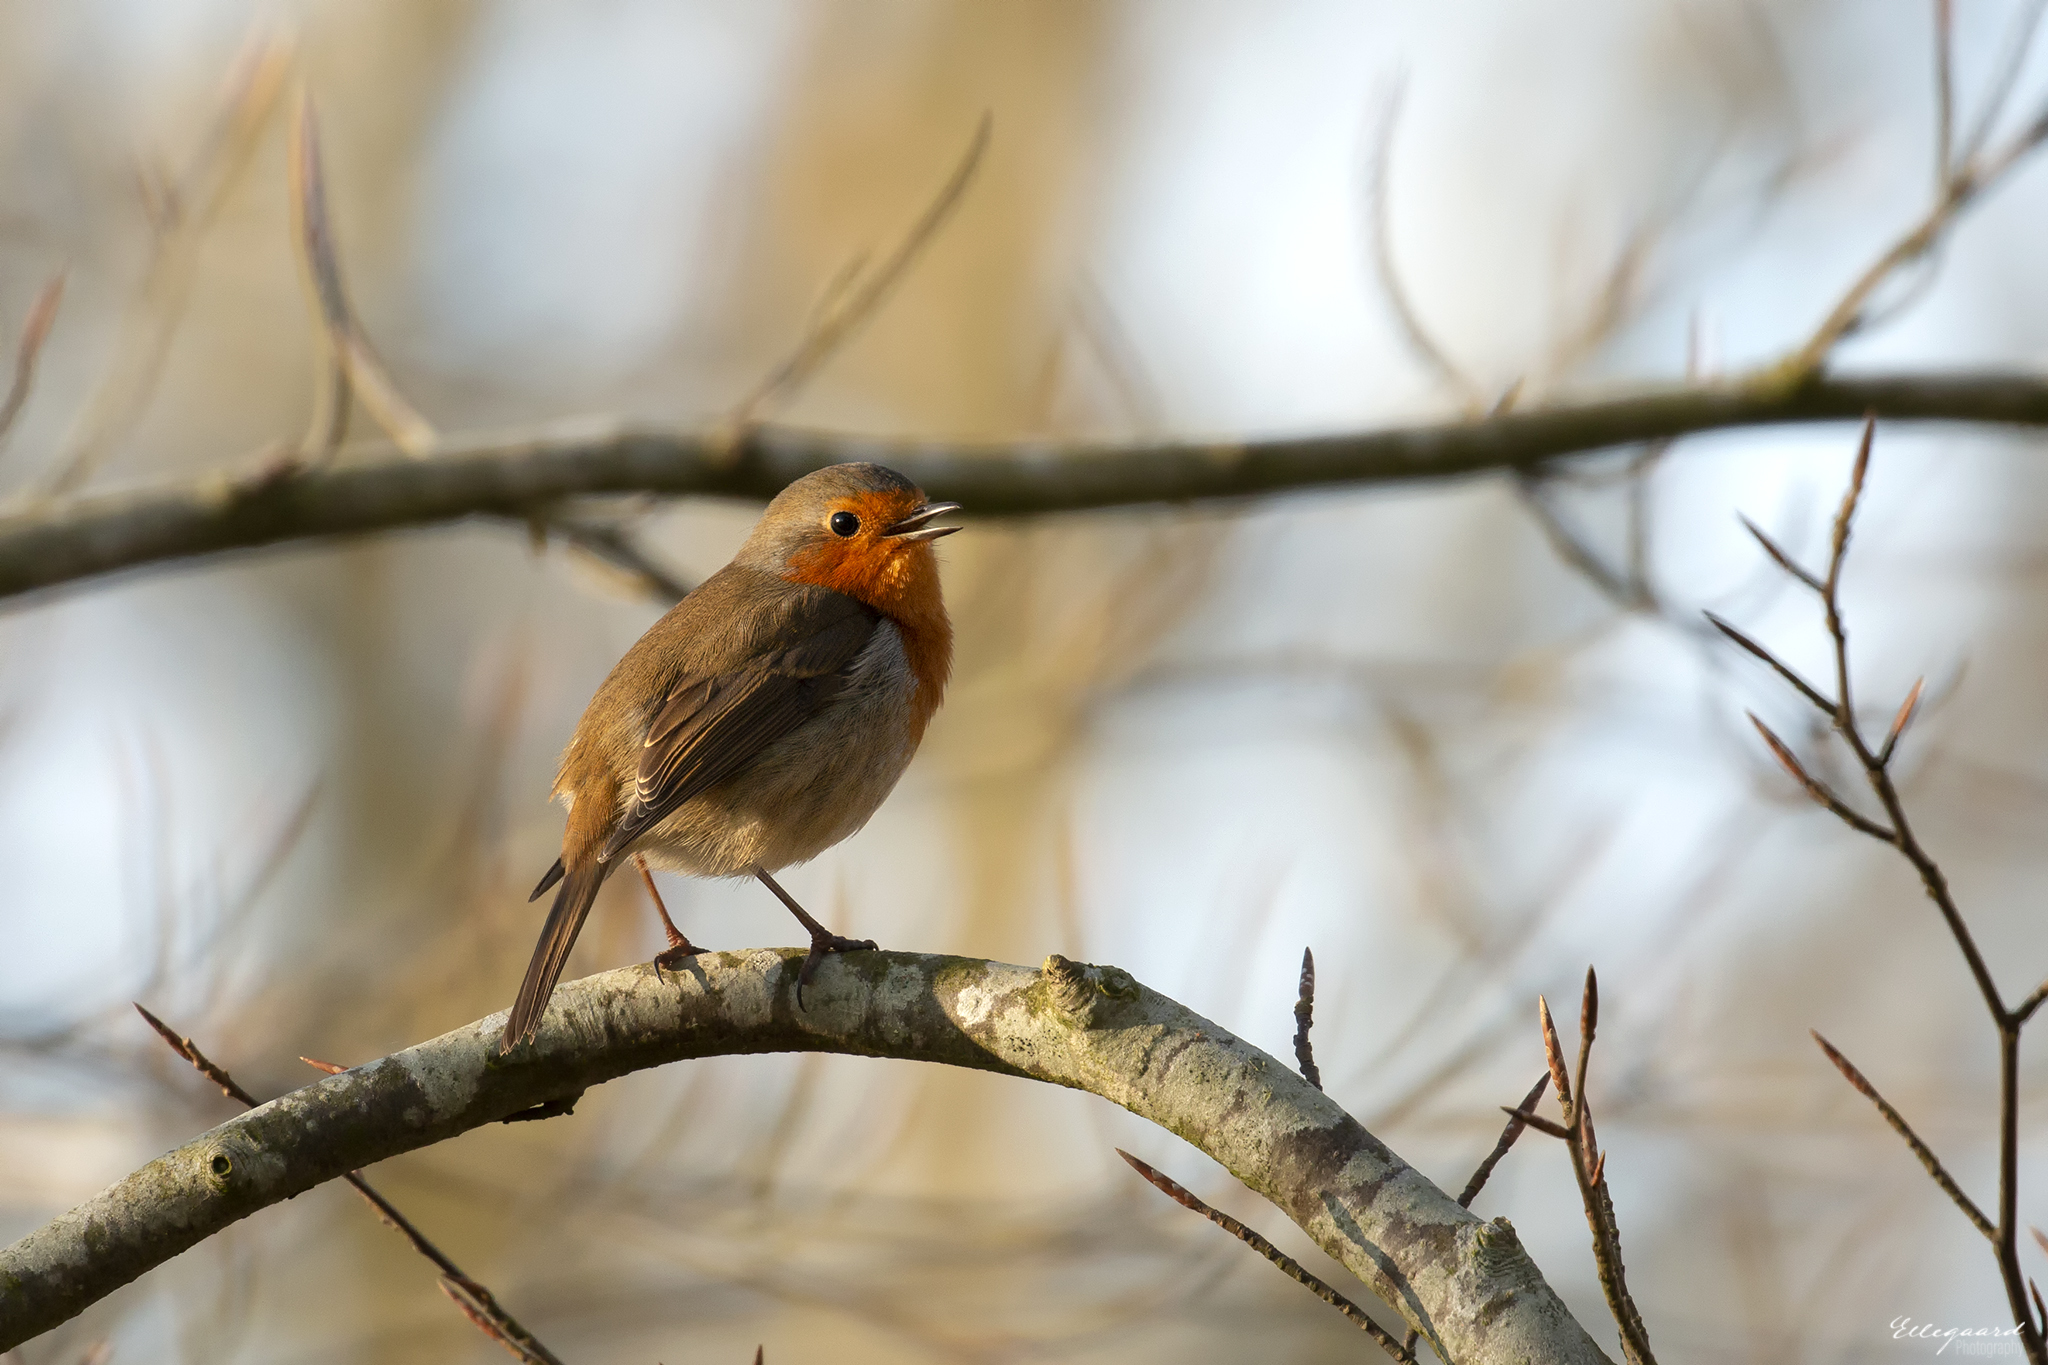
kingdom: Animalia
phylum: Chordata
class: Aves
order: Passeriformes
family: Muscicapidae
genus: Erithacus
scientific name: Erithacus rubecula
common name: European robin
